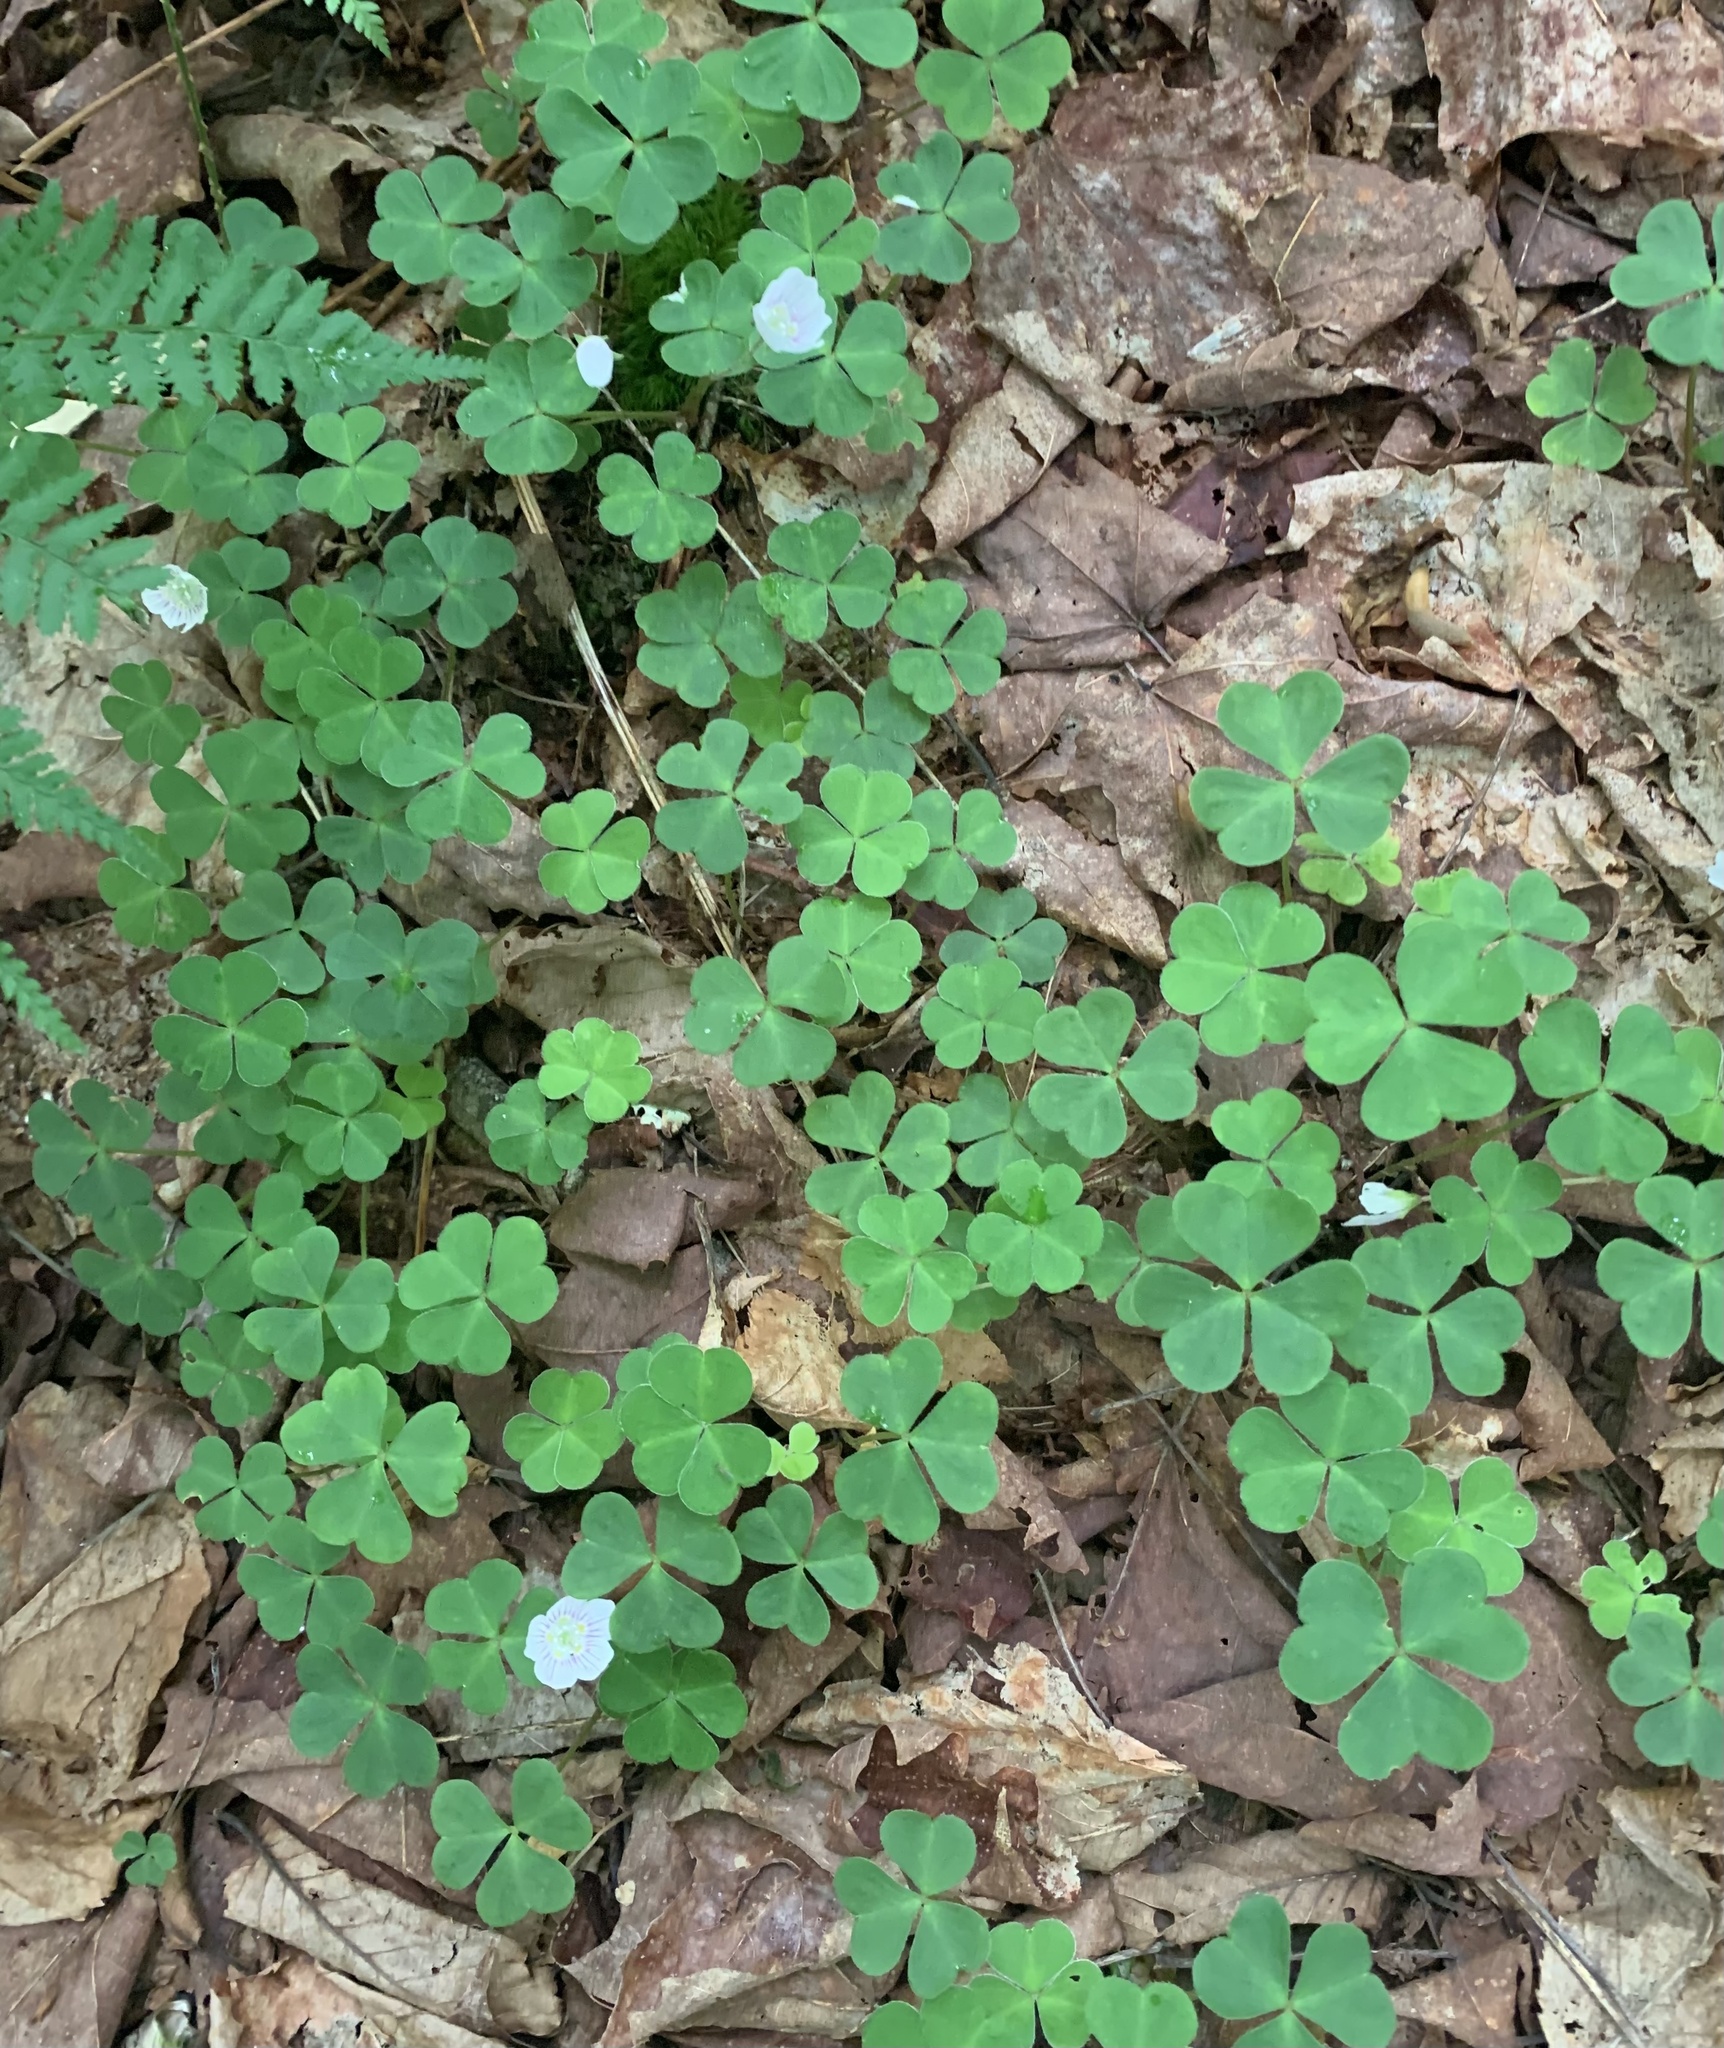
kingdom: Plantae
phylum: Tracheophyta
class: Magnoliopsida
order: Oxalidales
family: Oxalidaceae
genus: Oxalis
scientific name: Oxalis montana
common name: American wood-sorrel
